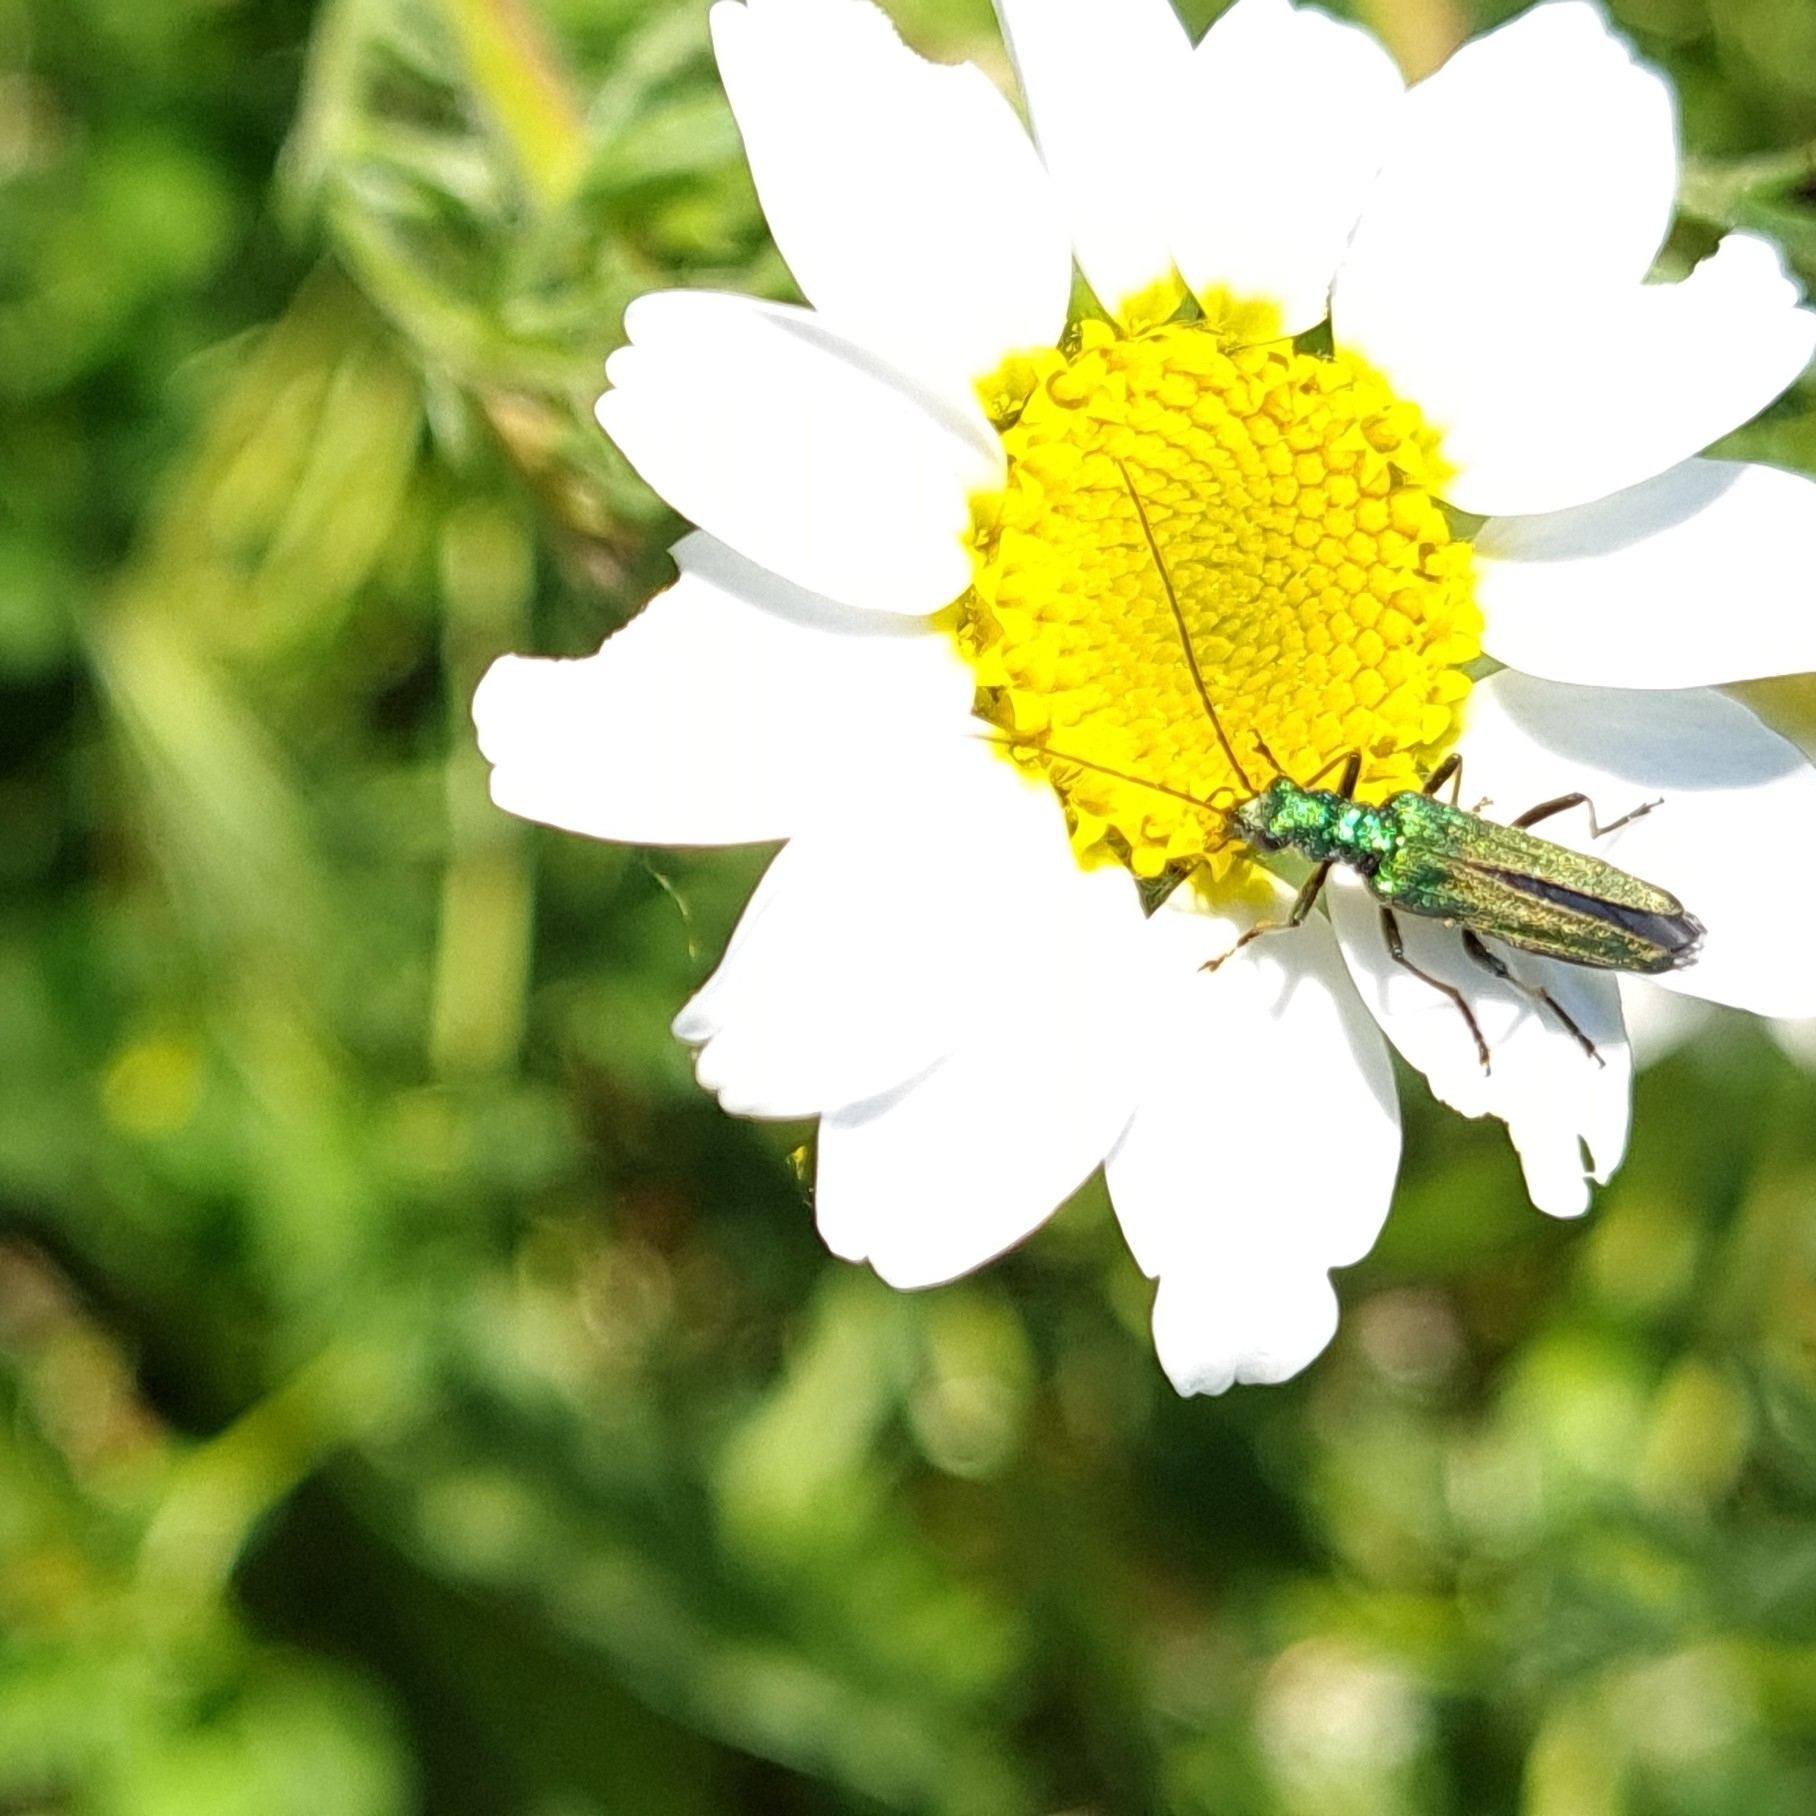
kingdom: Animalia
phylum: Arthropoda
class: Insecta
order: Coleoptera
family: Oedemeridae
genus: Oedemera
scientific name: Oedemera nobilis
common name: Swollen-thighed beetle
